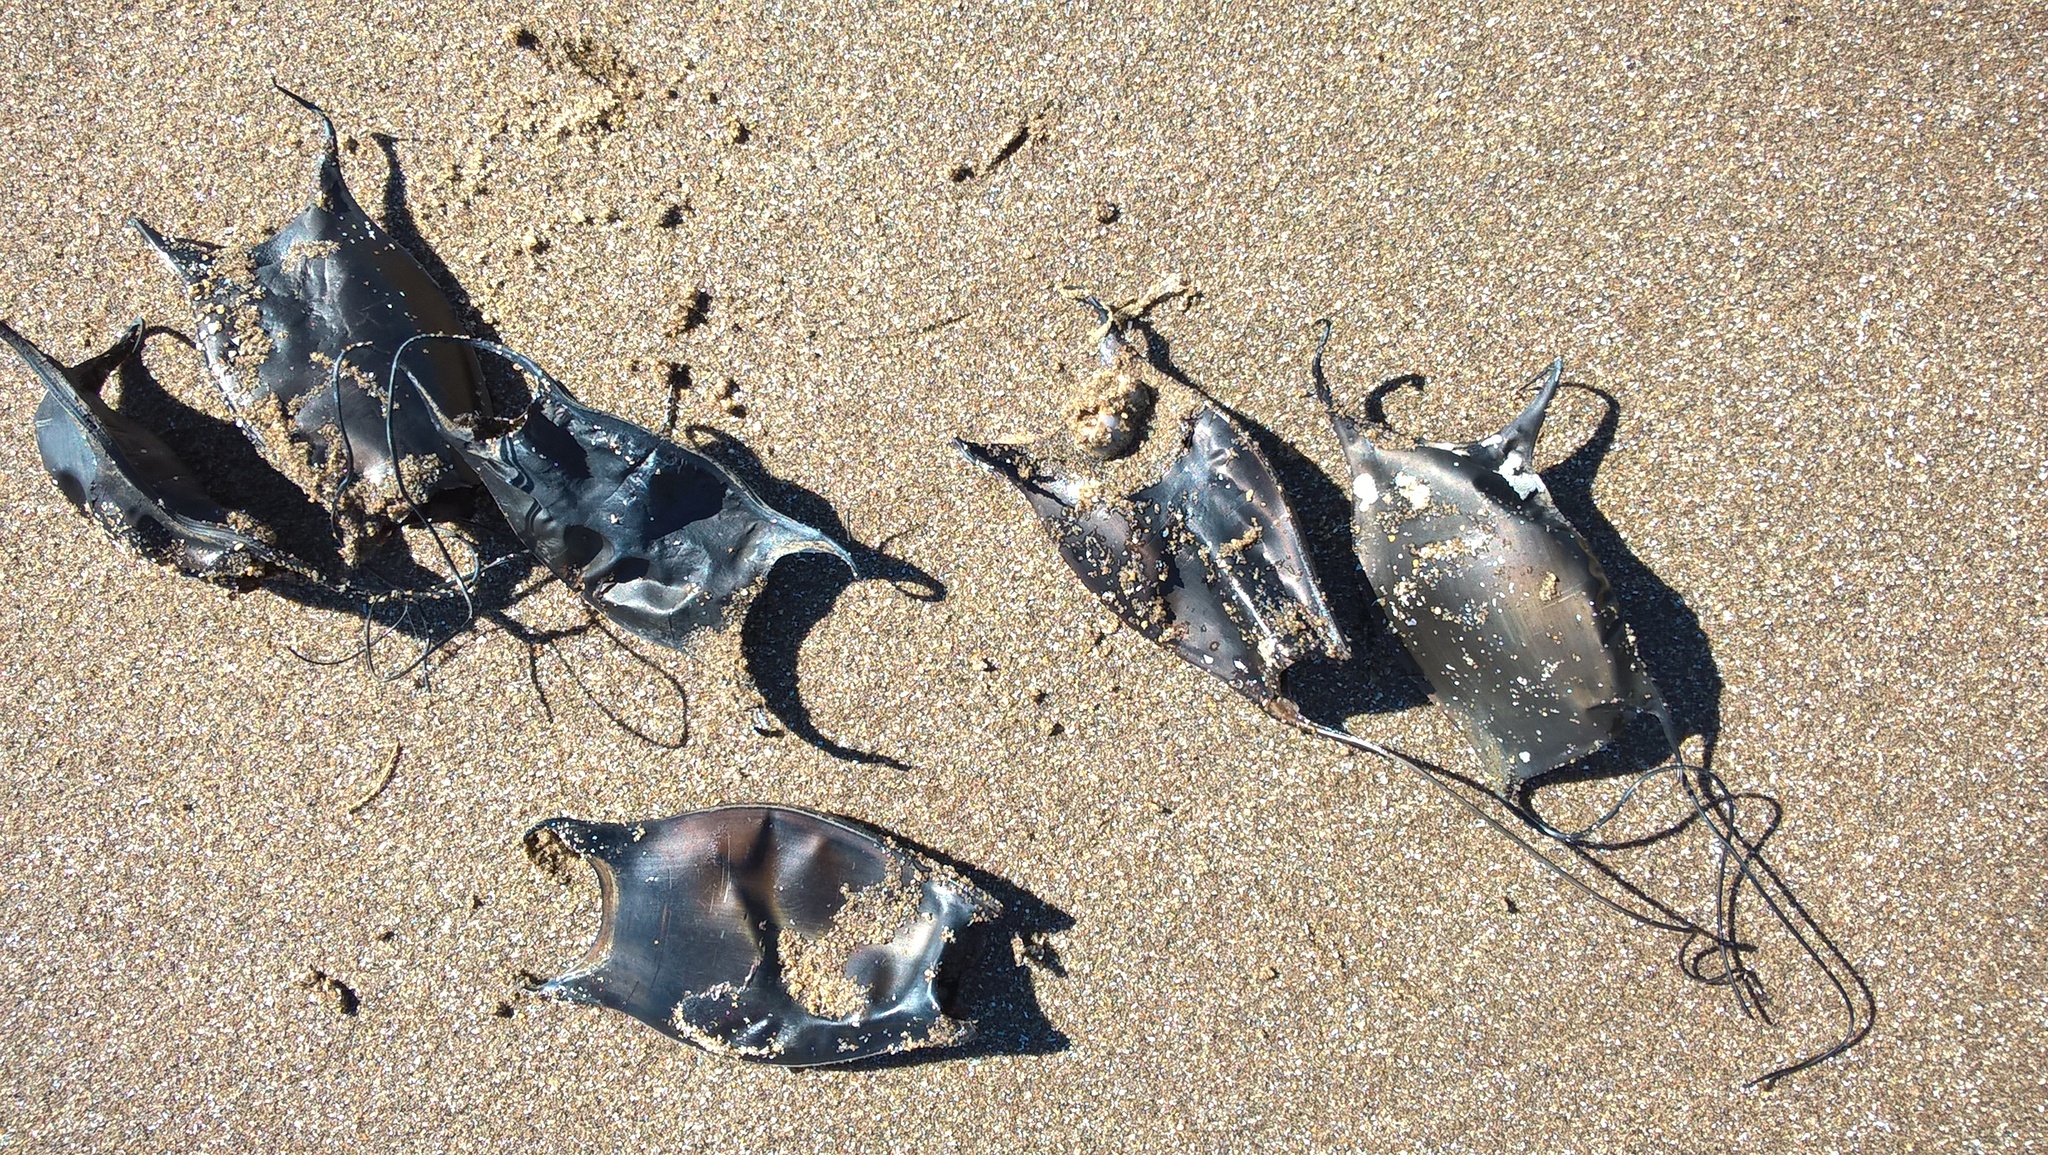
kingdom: Animalia
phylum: Chordata
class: Elasmobranchii
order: Rajiformes
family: Arhynchobatidae
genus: Sympterygia
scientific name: Sympterygia acuta
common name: Bignose fanskate
